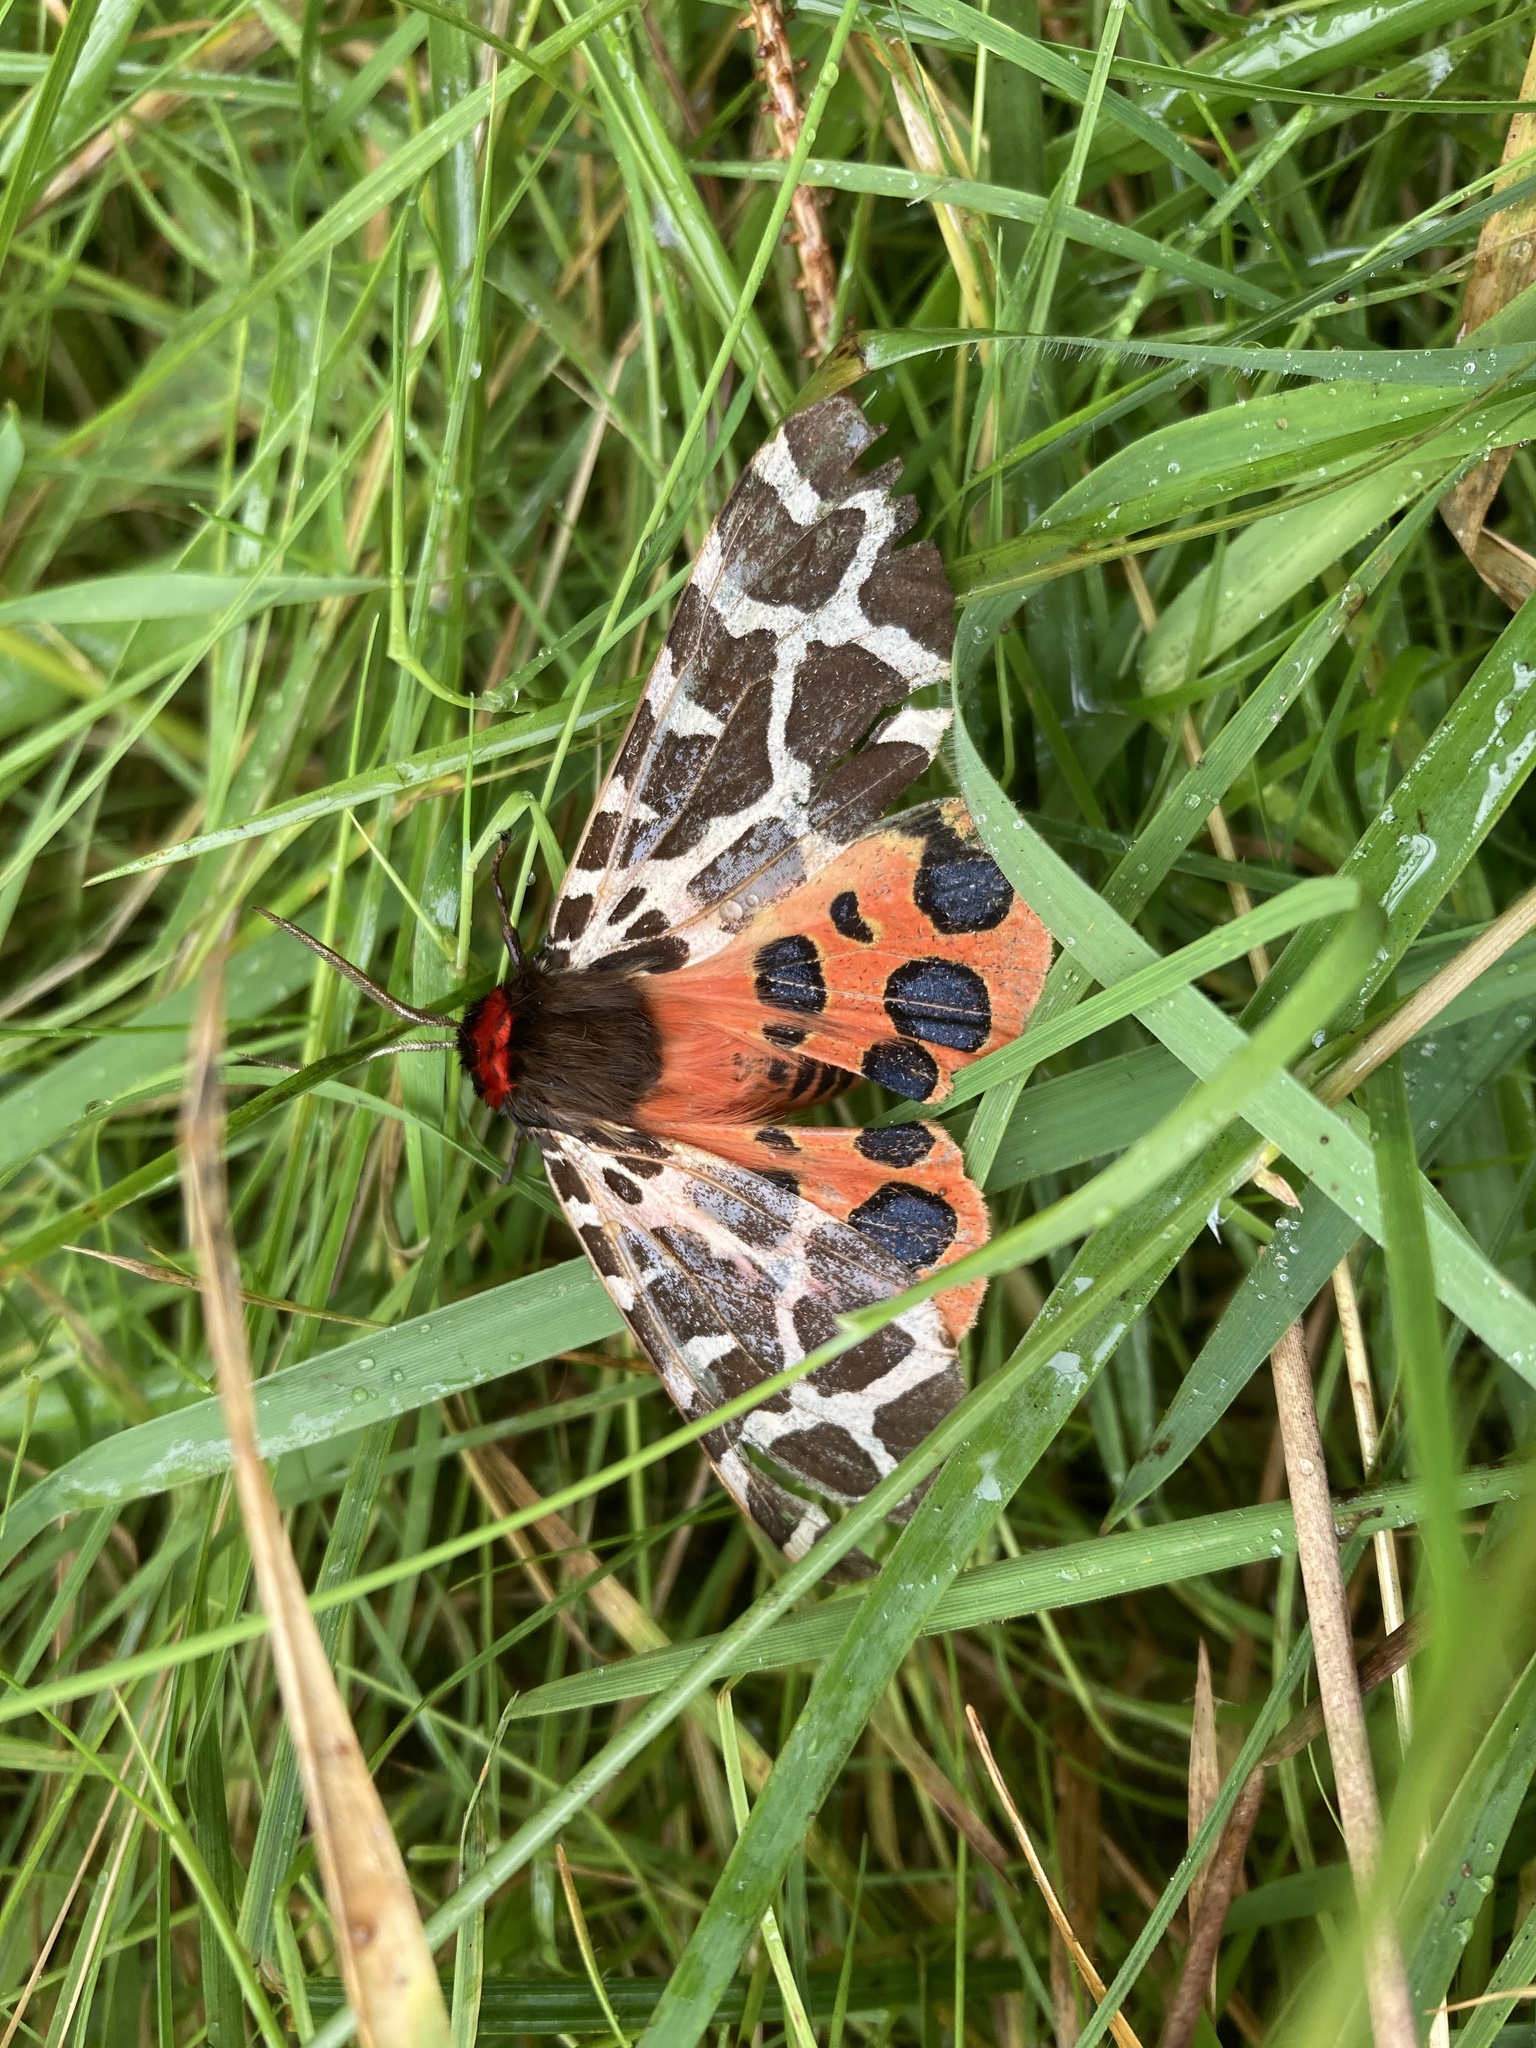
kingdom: Animalia
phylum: Arthropoda
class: Insecta
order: Lepidoptera
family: Erebidae
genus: Arctia
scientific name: Arctia caja
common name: Garden tiger
